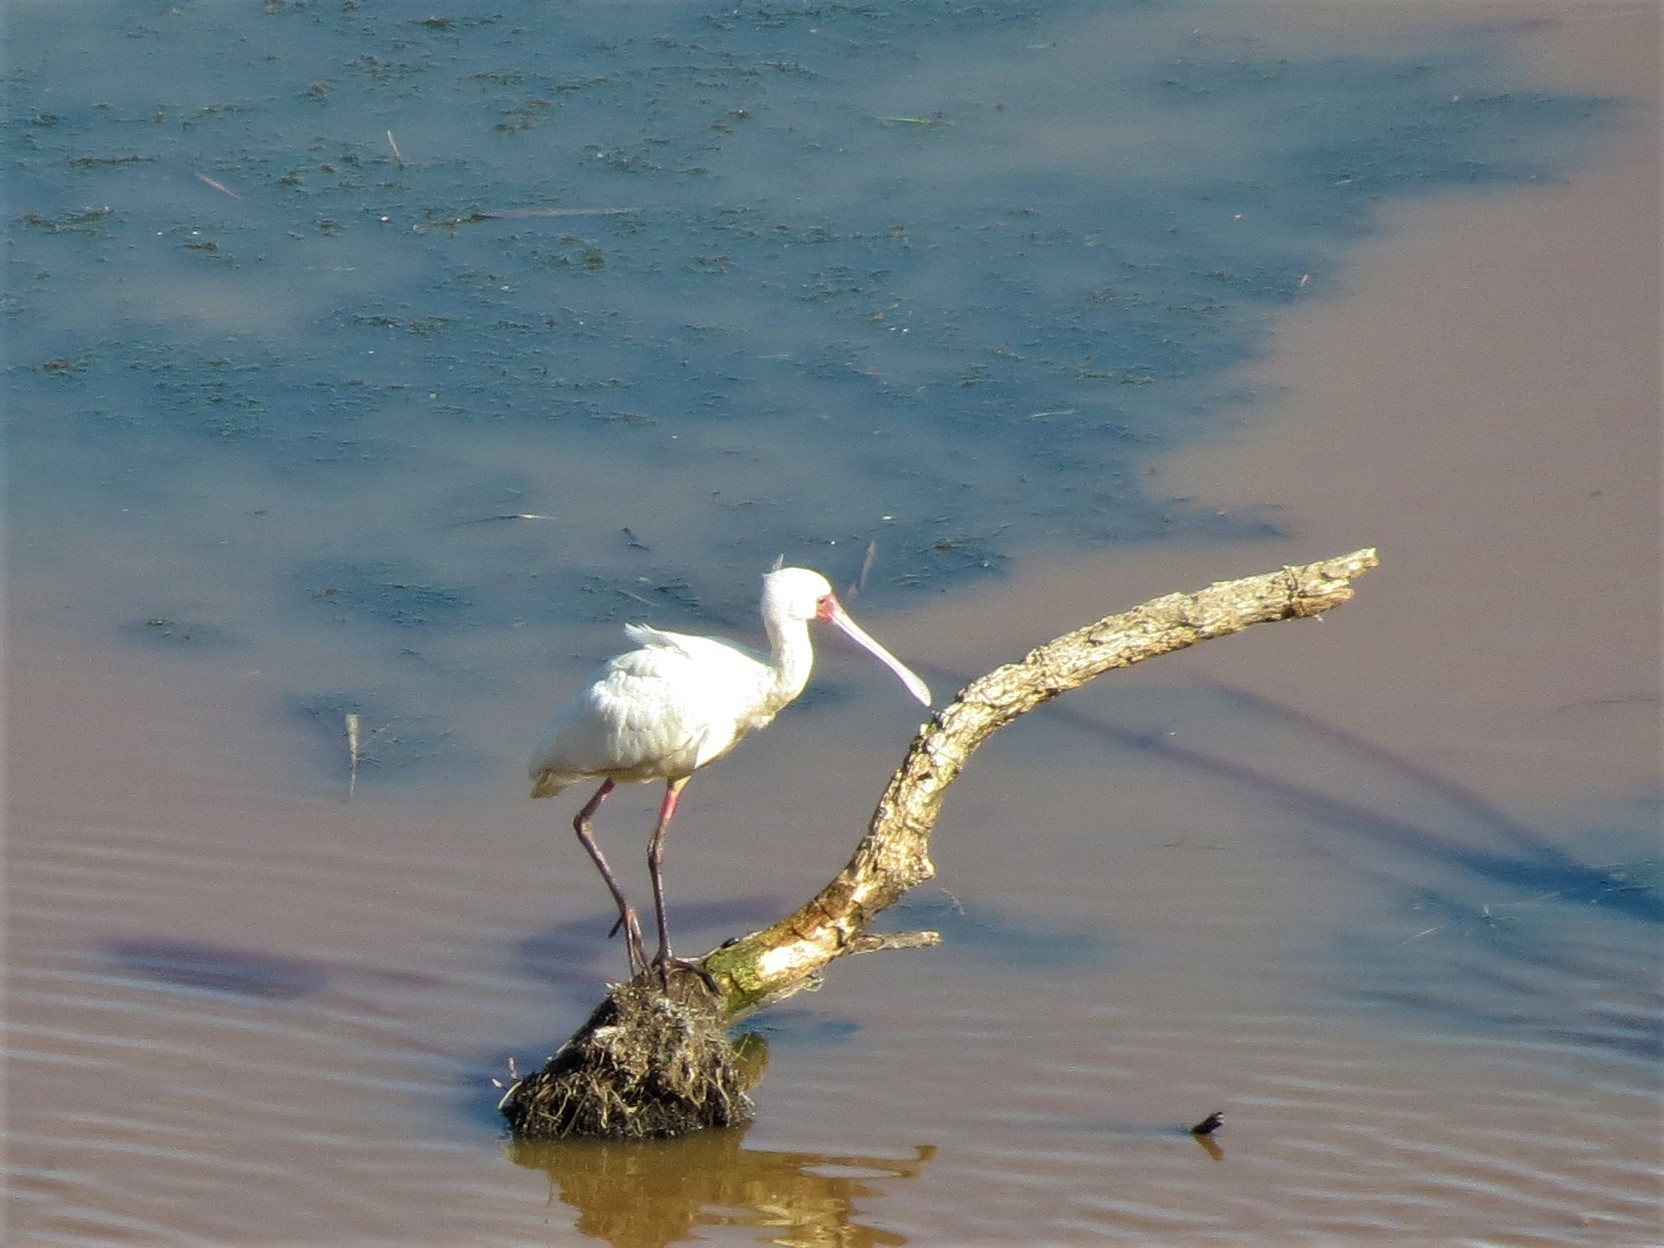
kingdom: Animalia
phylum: Chordata
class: Aves
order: Pelecaniformes
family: Threskiornithidae
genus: Platalea
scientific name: Platalea alba
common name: African spoonbill
